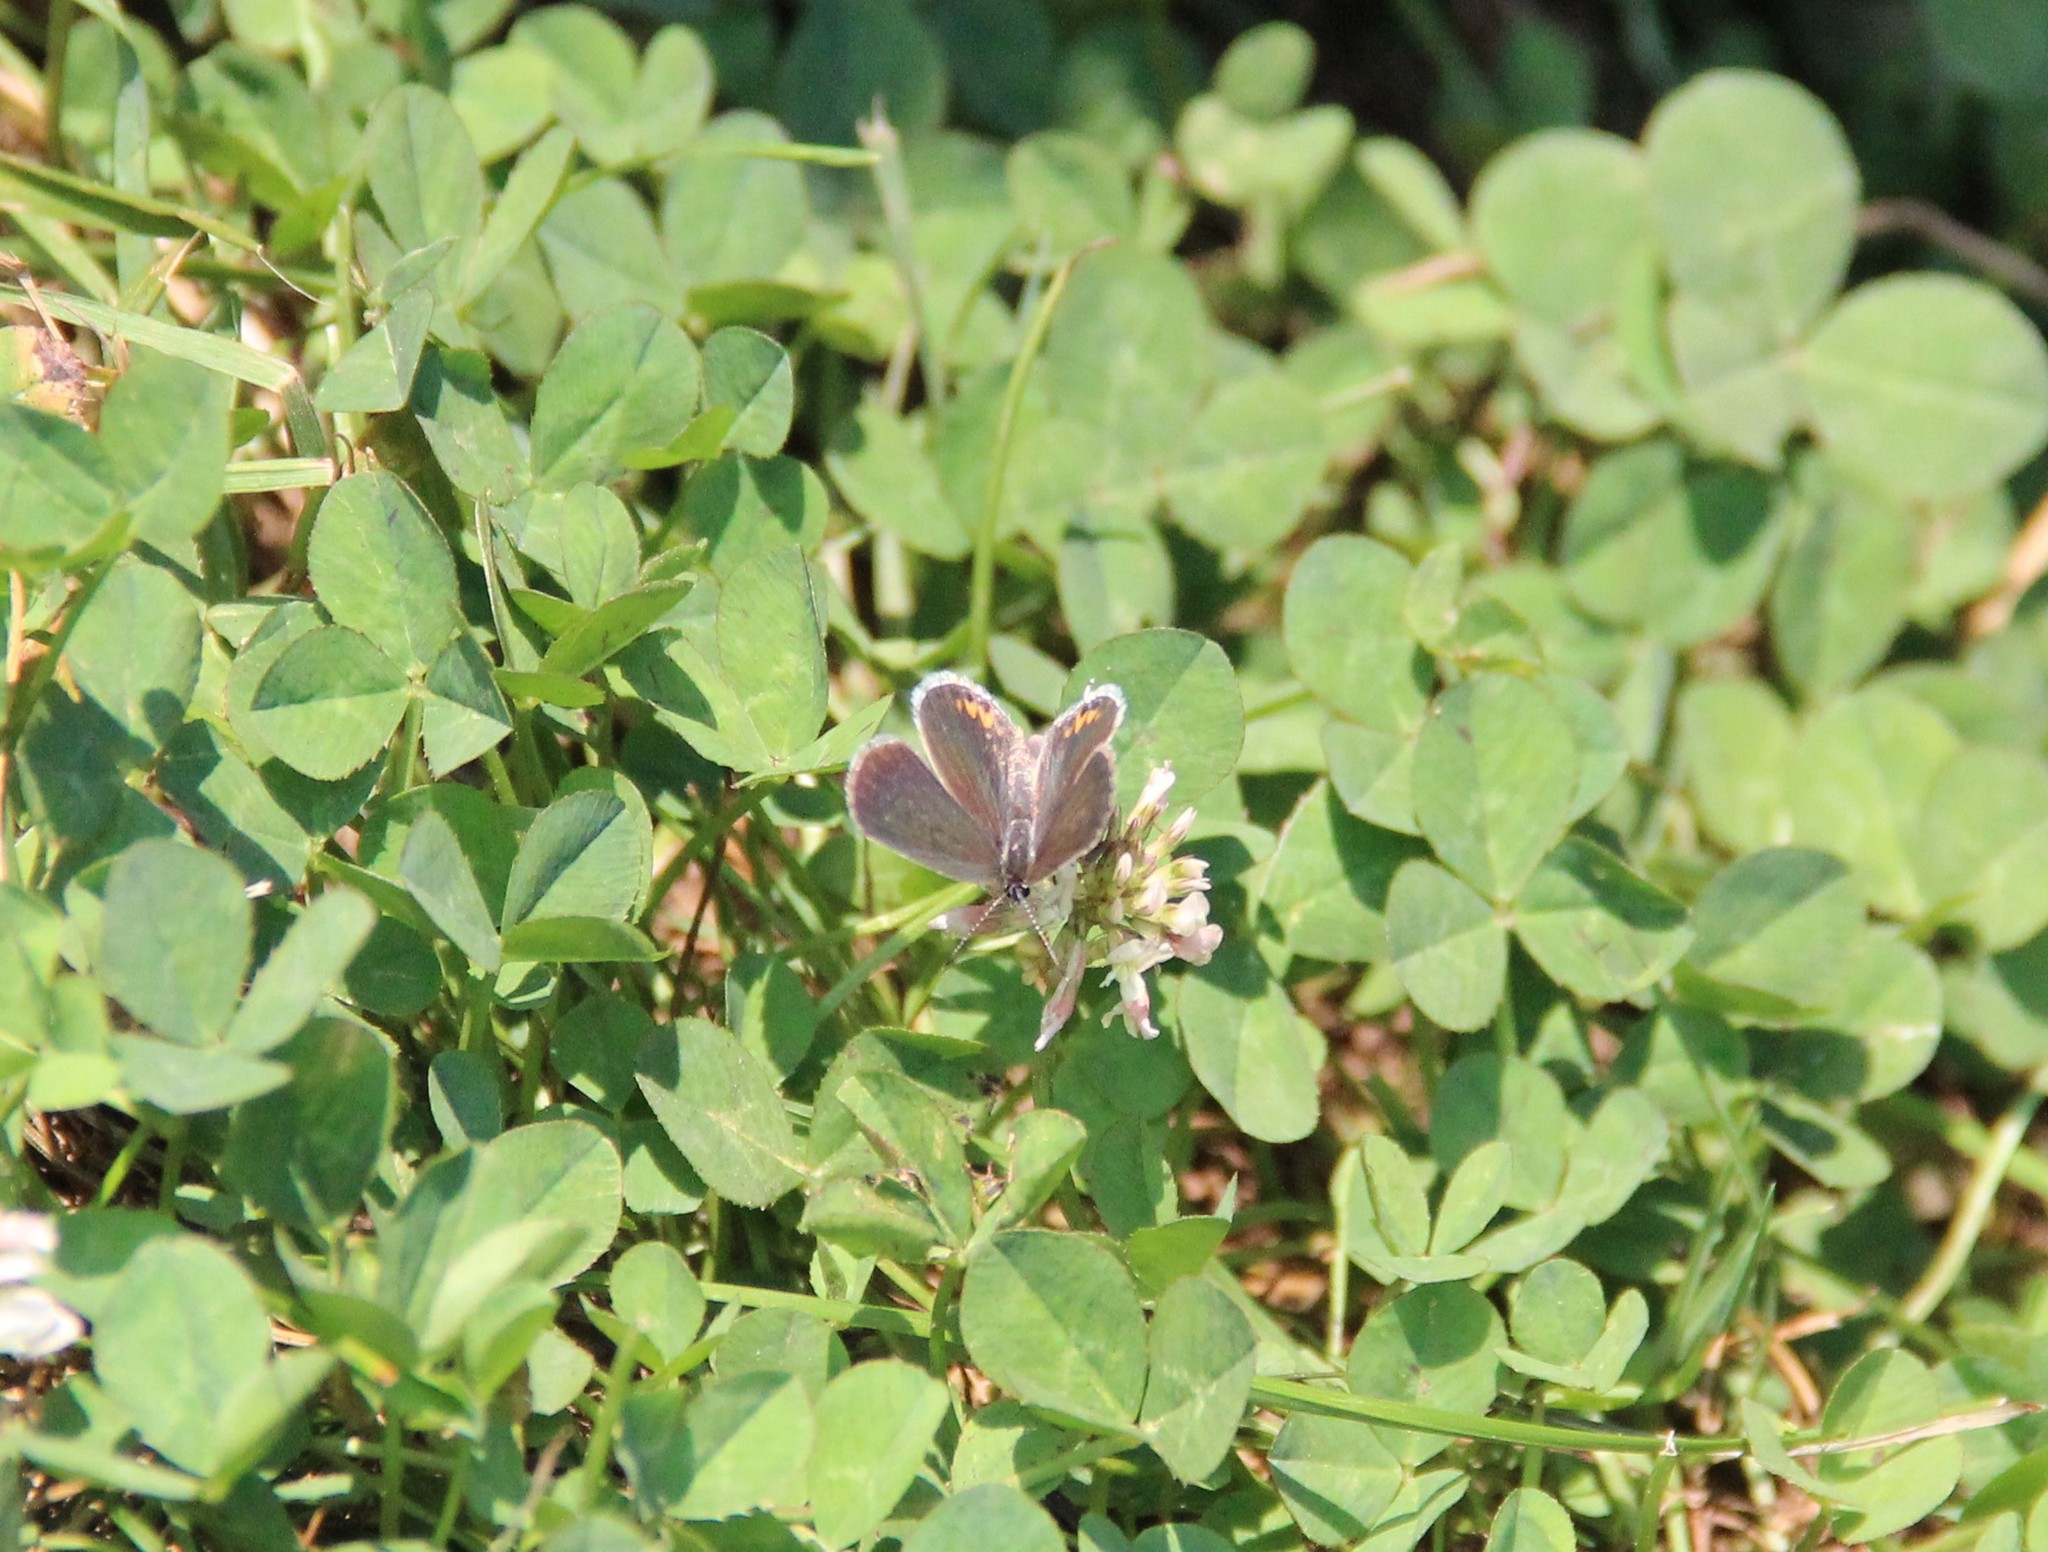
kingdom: Animalia
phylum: Arthropoda
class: Insecta
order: Lepidoptera
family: Lycaenidae
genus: Elkalyce
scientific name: Elkalyce comyntas
